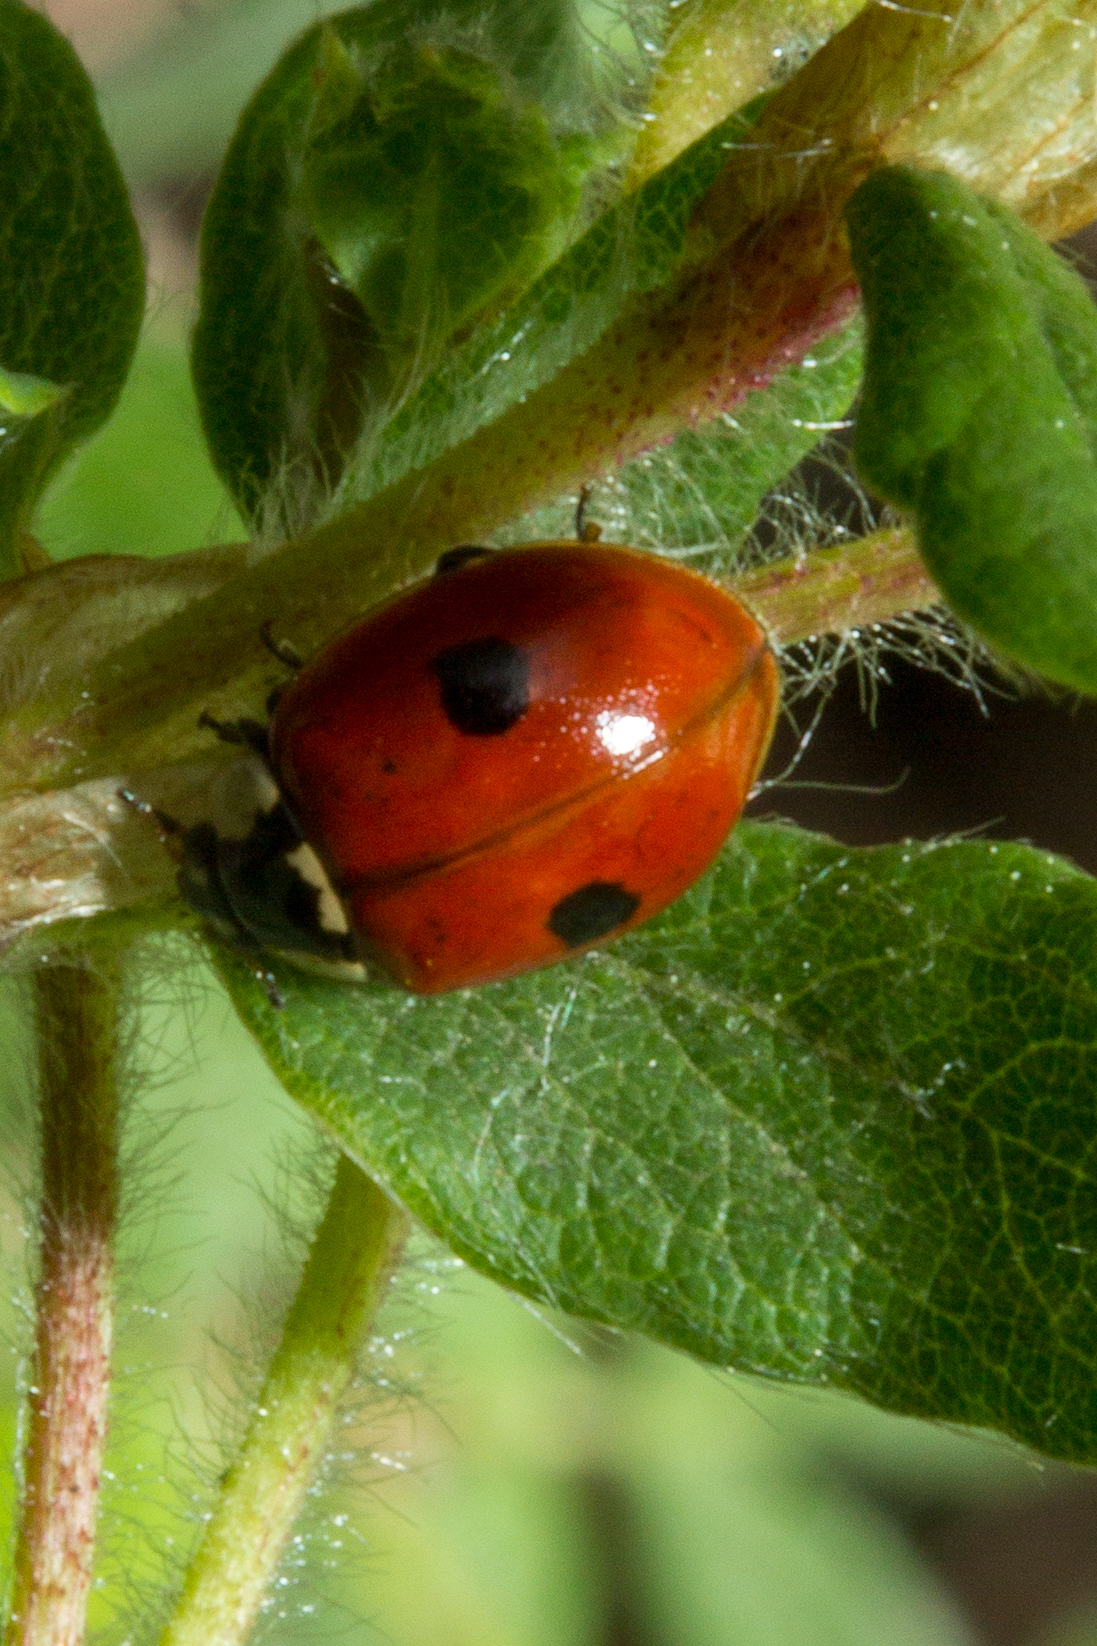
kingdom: Animalia
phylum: Arthropoda
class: Insecta
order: Coleoptera
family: Coccinellidae
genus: Adalia
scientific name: Adalia bipunctata
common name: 2-spot ladybird
